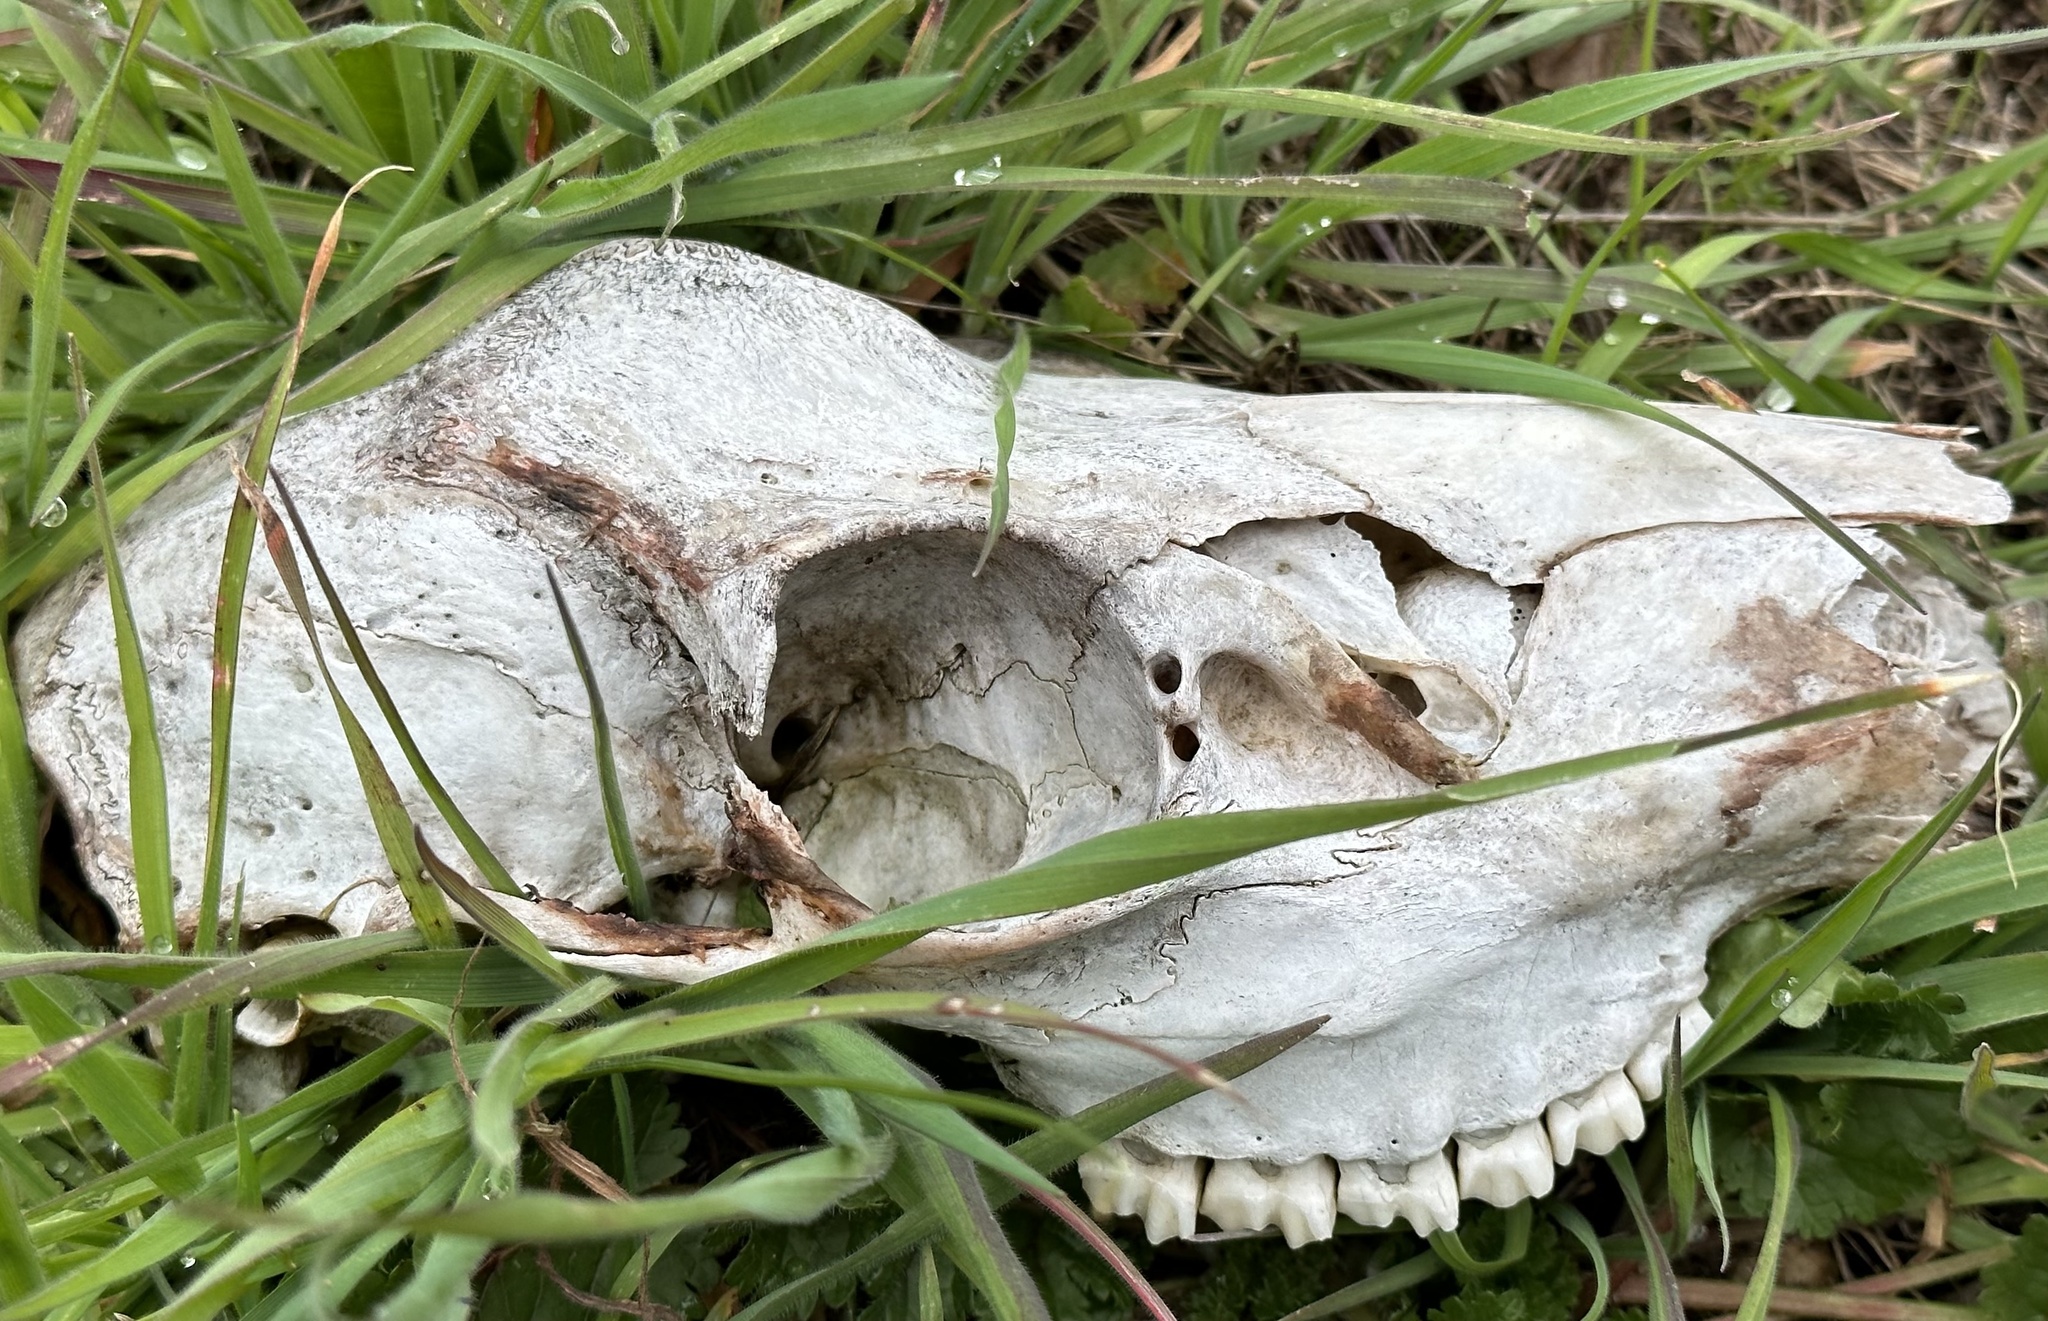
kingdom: Animalia
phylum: Chordata
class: Mammalia
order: Artiodactyla
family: Cervidae
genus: Odocoileus
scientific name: Odocoileus hemionus
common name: Mule deer
